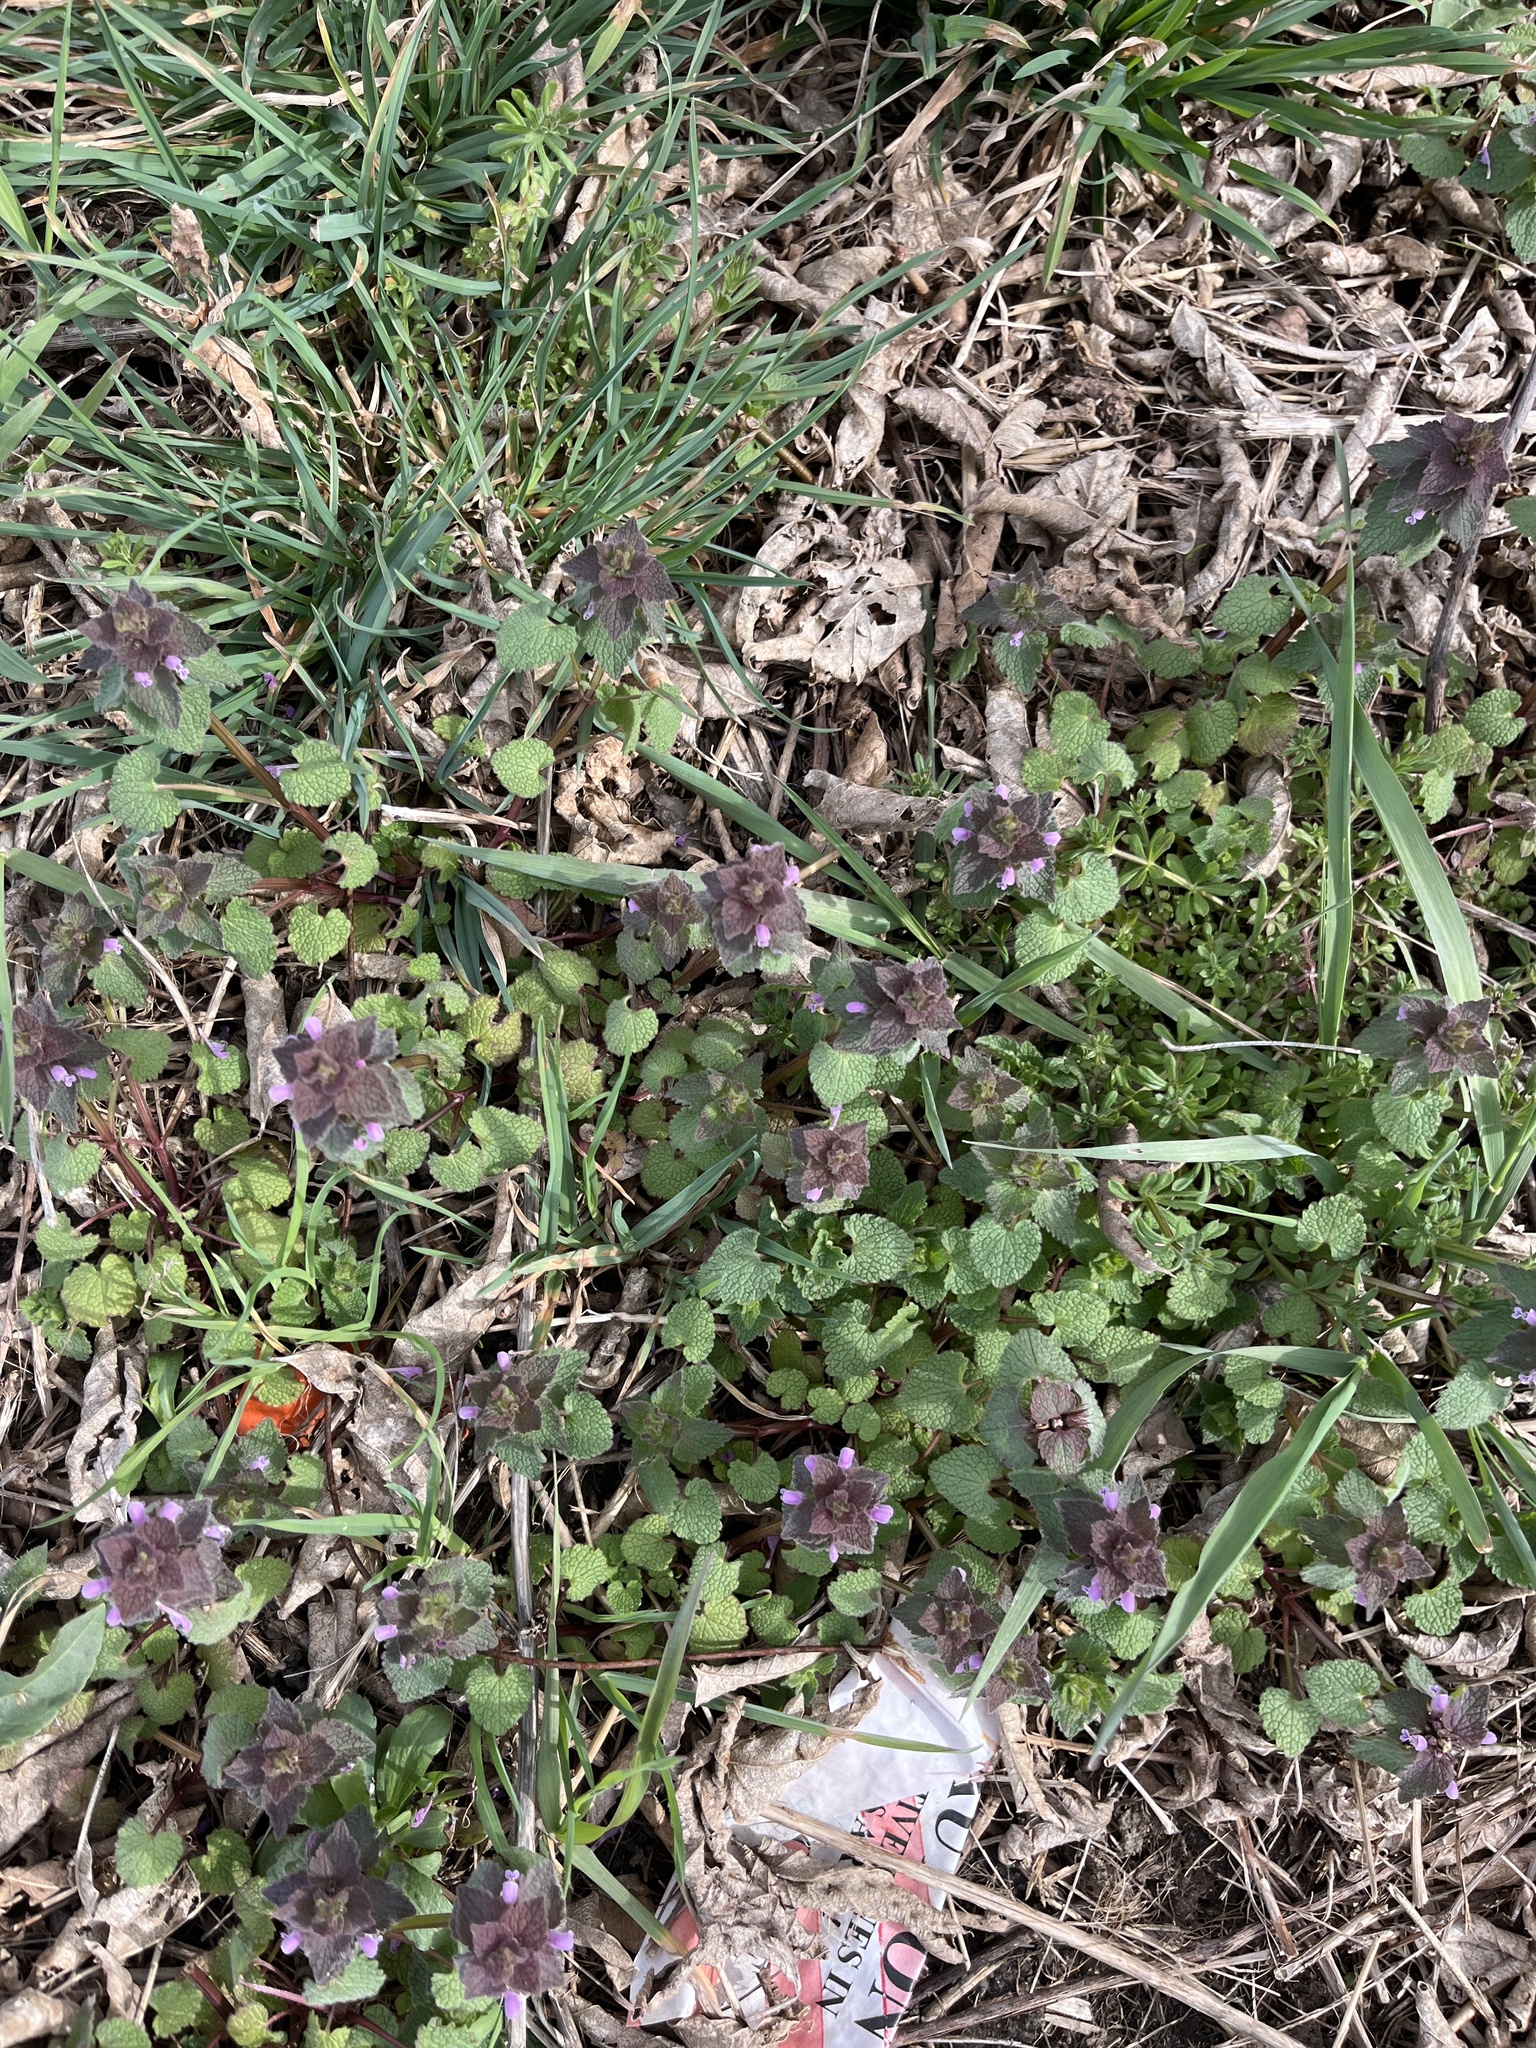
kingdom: Plantae
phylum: Tracheophyta
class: Magnoliopsida
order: Lamiales
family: Lamiaceae
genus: Lamium
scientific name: Lamium purpureum
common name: Red dead-nettle
